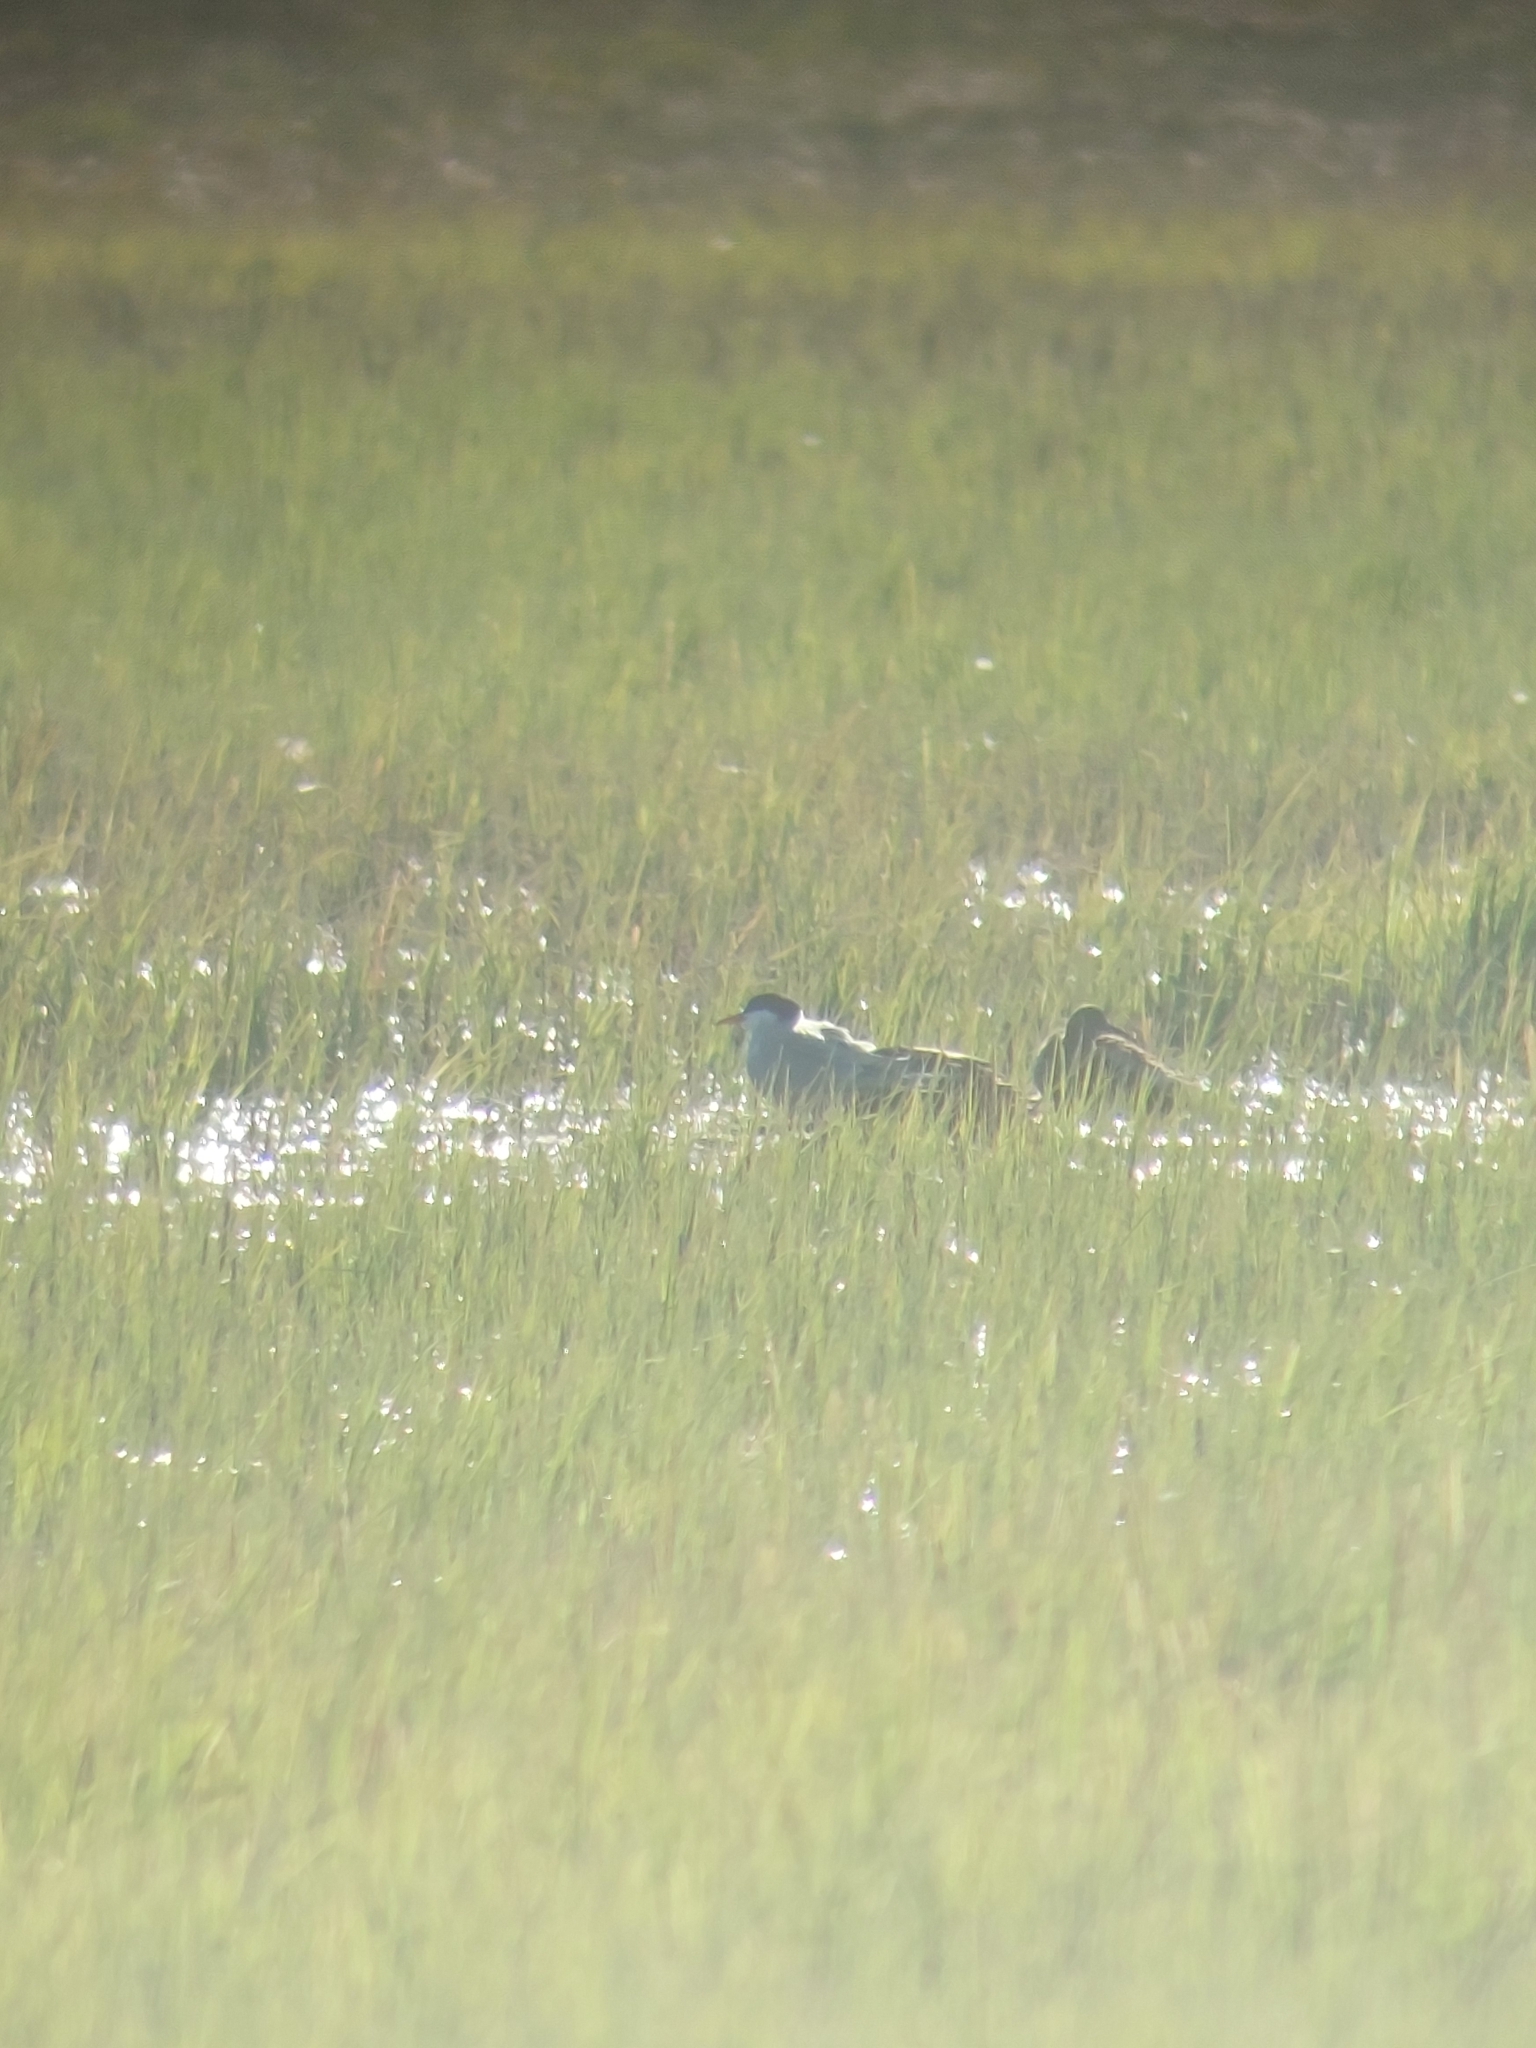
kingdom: Animalia
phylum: Chordata
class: Aves
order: Charadriiformes
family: Laridae
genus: Sterna
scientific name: Sterna hirundo
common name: Common tern
